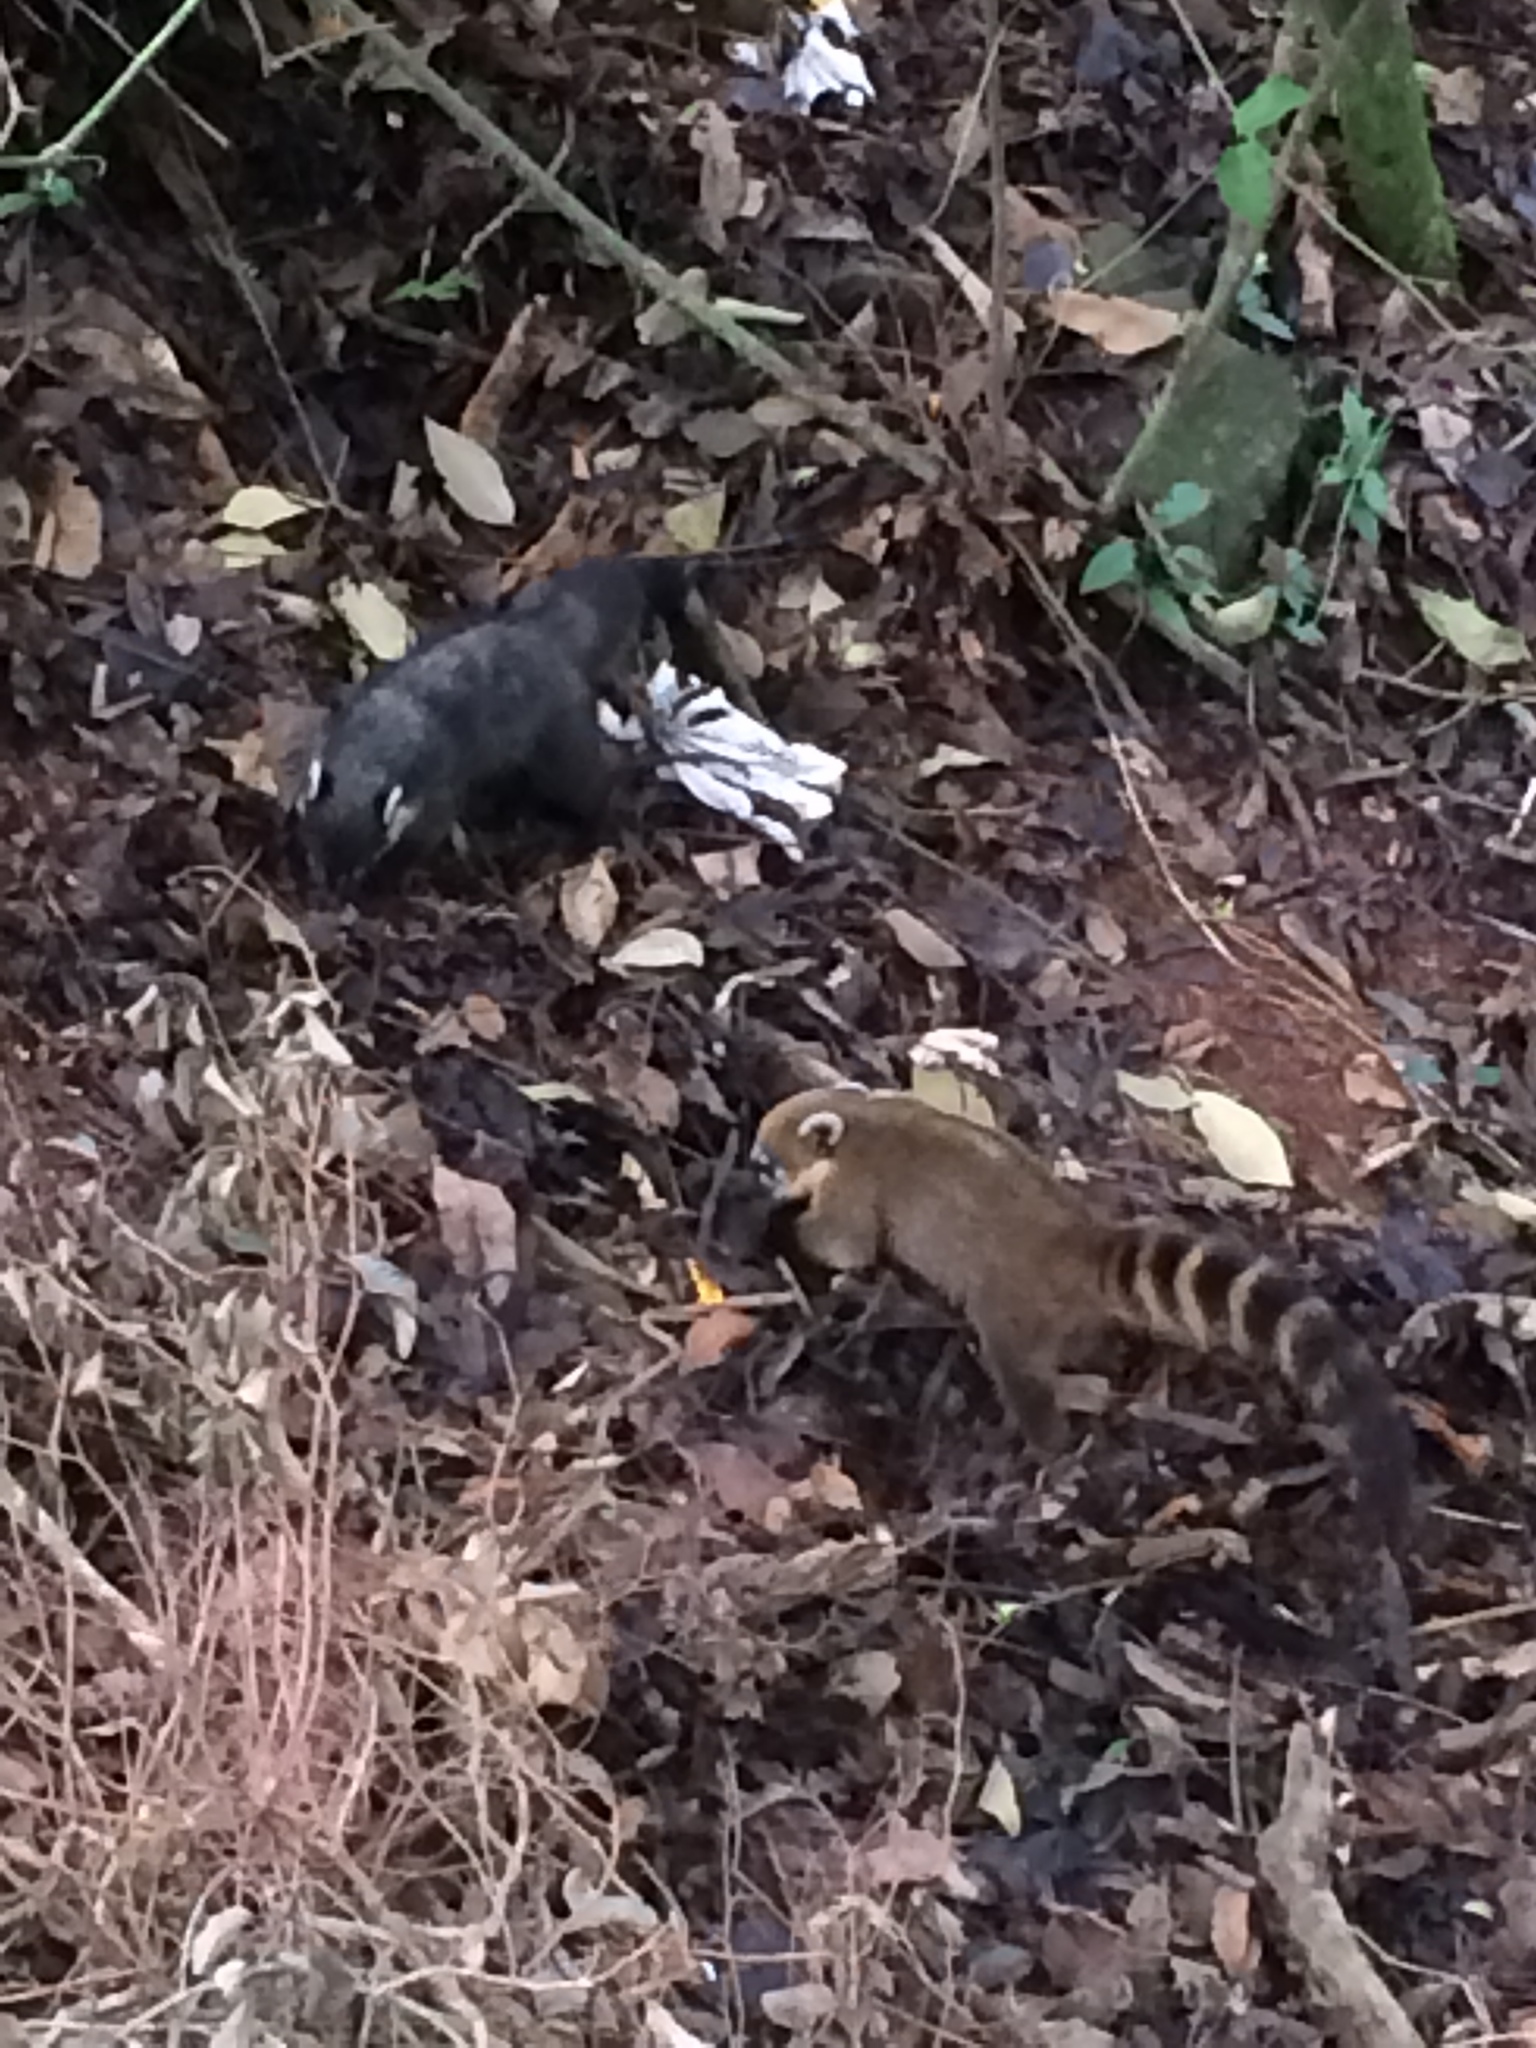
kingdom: Animalia
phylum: Chordata
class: Mammalia
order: Carnivora
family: Procyonidae
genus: Nasua
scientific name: Nasua nasua
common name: South american coati
